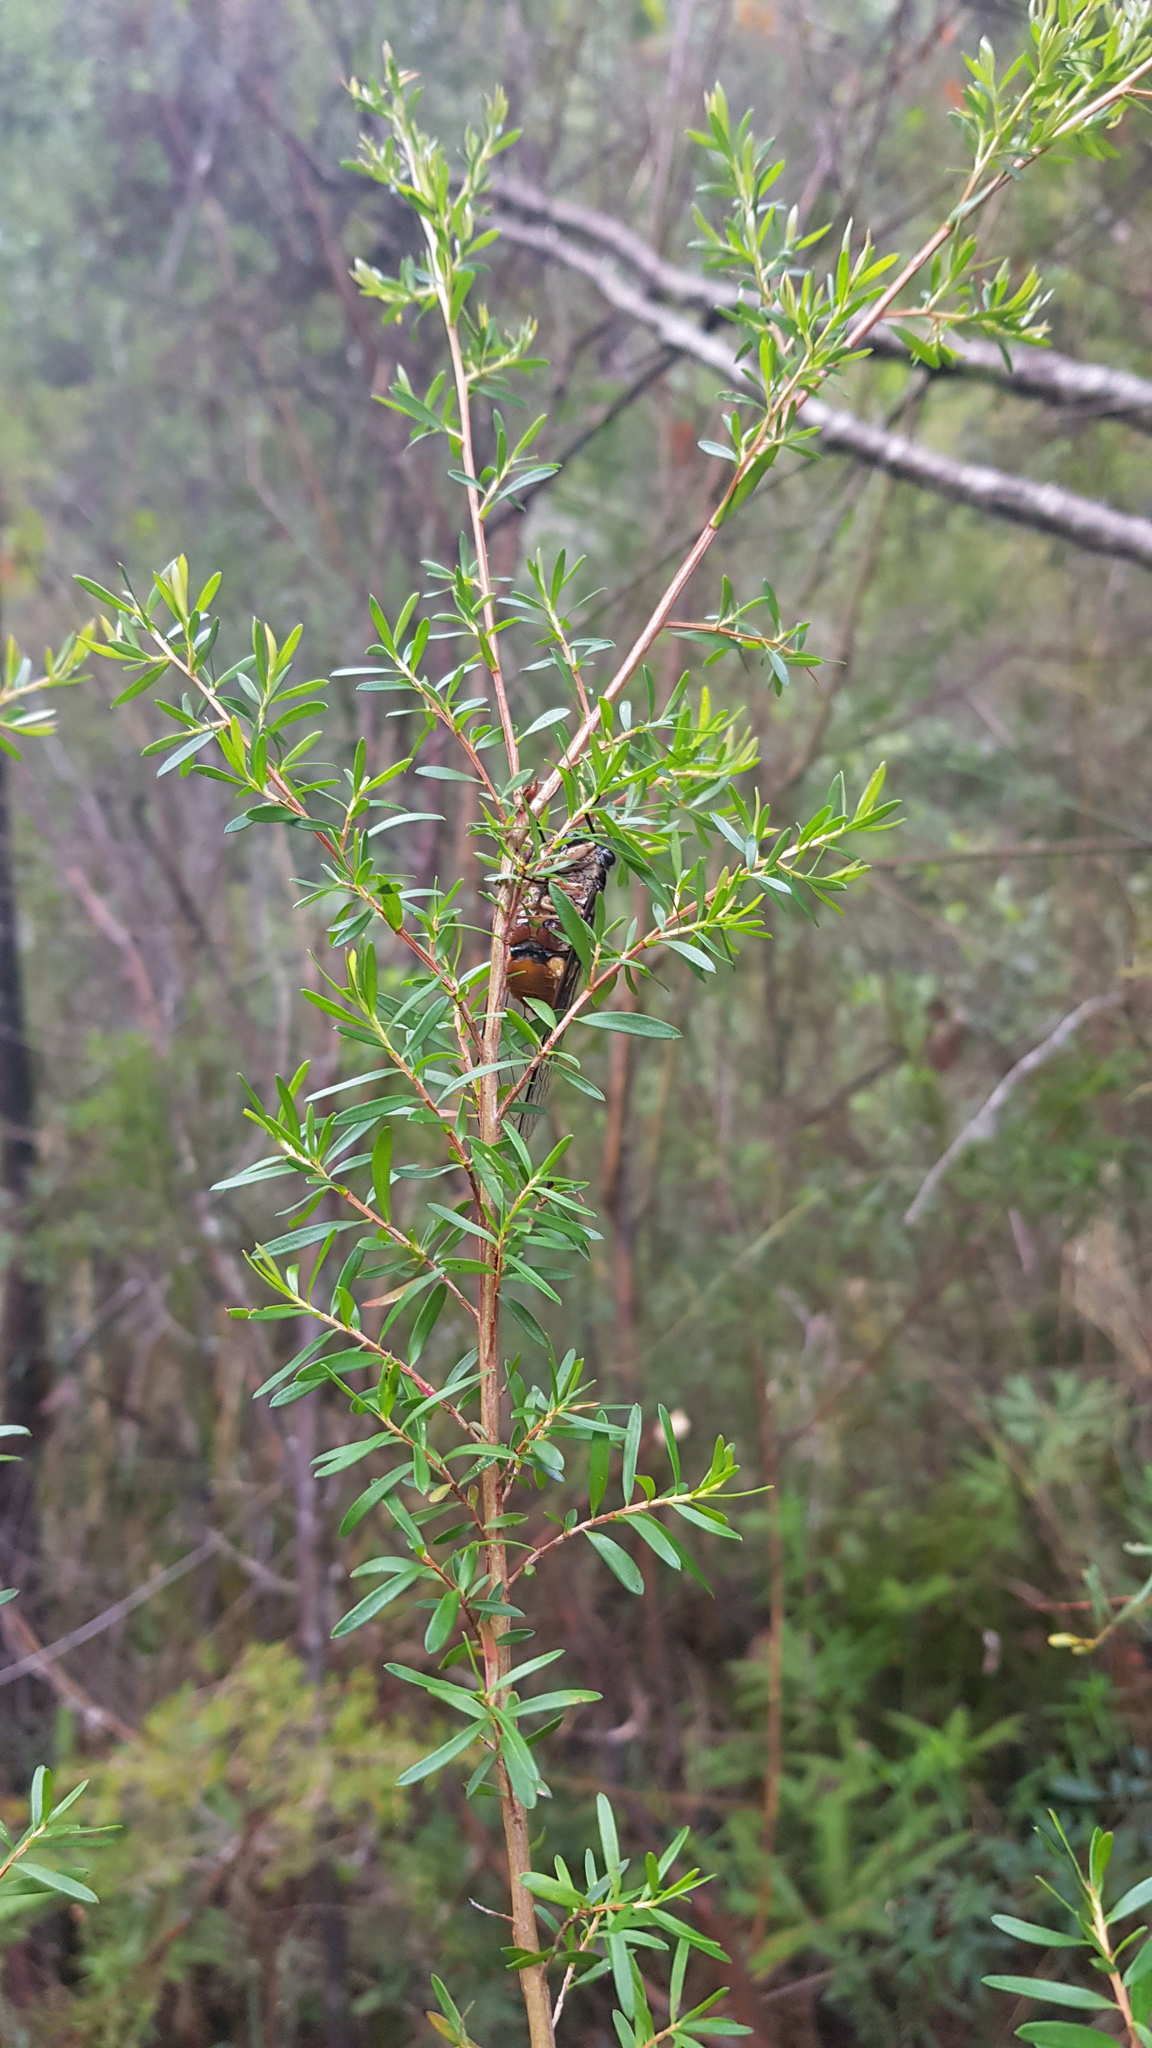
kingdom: Animalia
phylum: Arthropoda
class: Insecta
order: Hemiptera
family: Cicadidae
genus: Psaltoda
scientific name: Psaltoda harrisii
